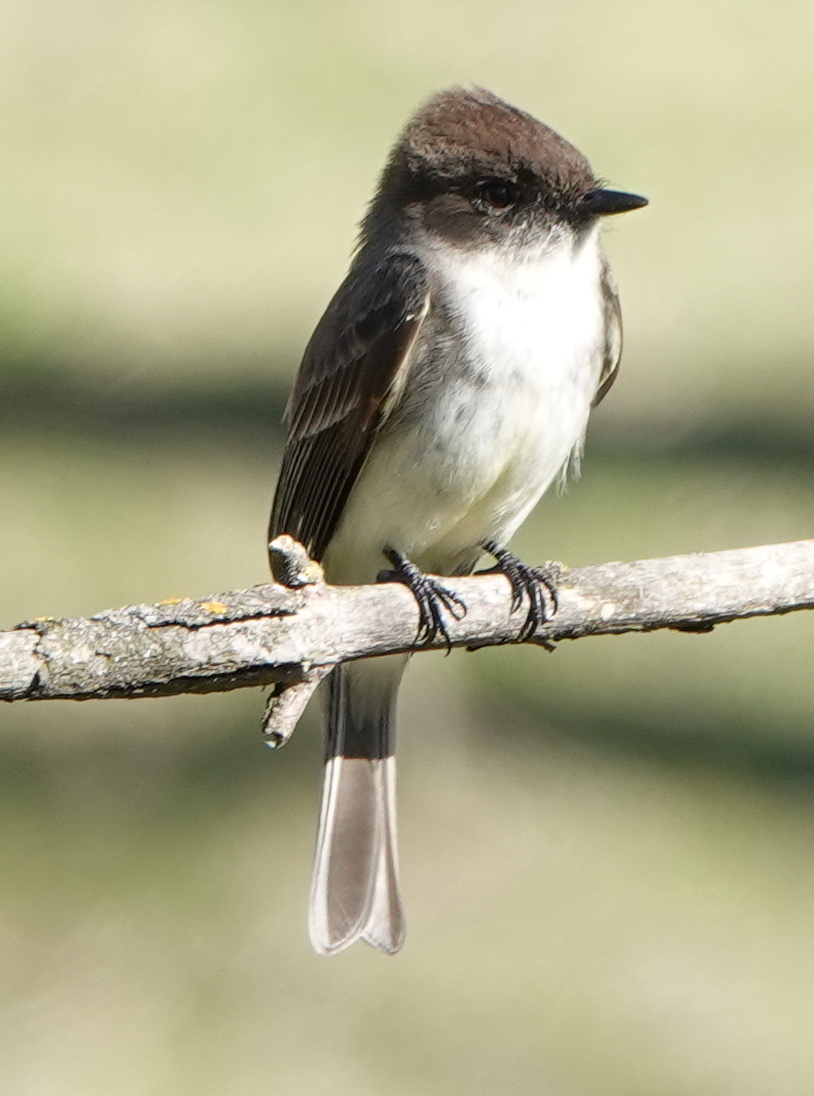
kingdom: Animalia
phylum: Chordata
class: Aves
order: Passeriformes
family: Tyrannidae
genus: Sayornis
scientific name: Sayornis phoebe
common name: Eastern phoebe
